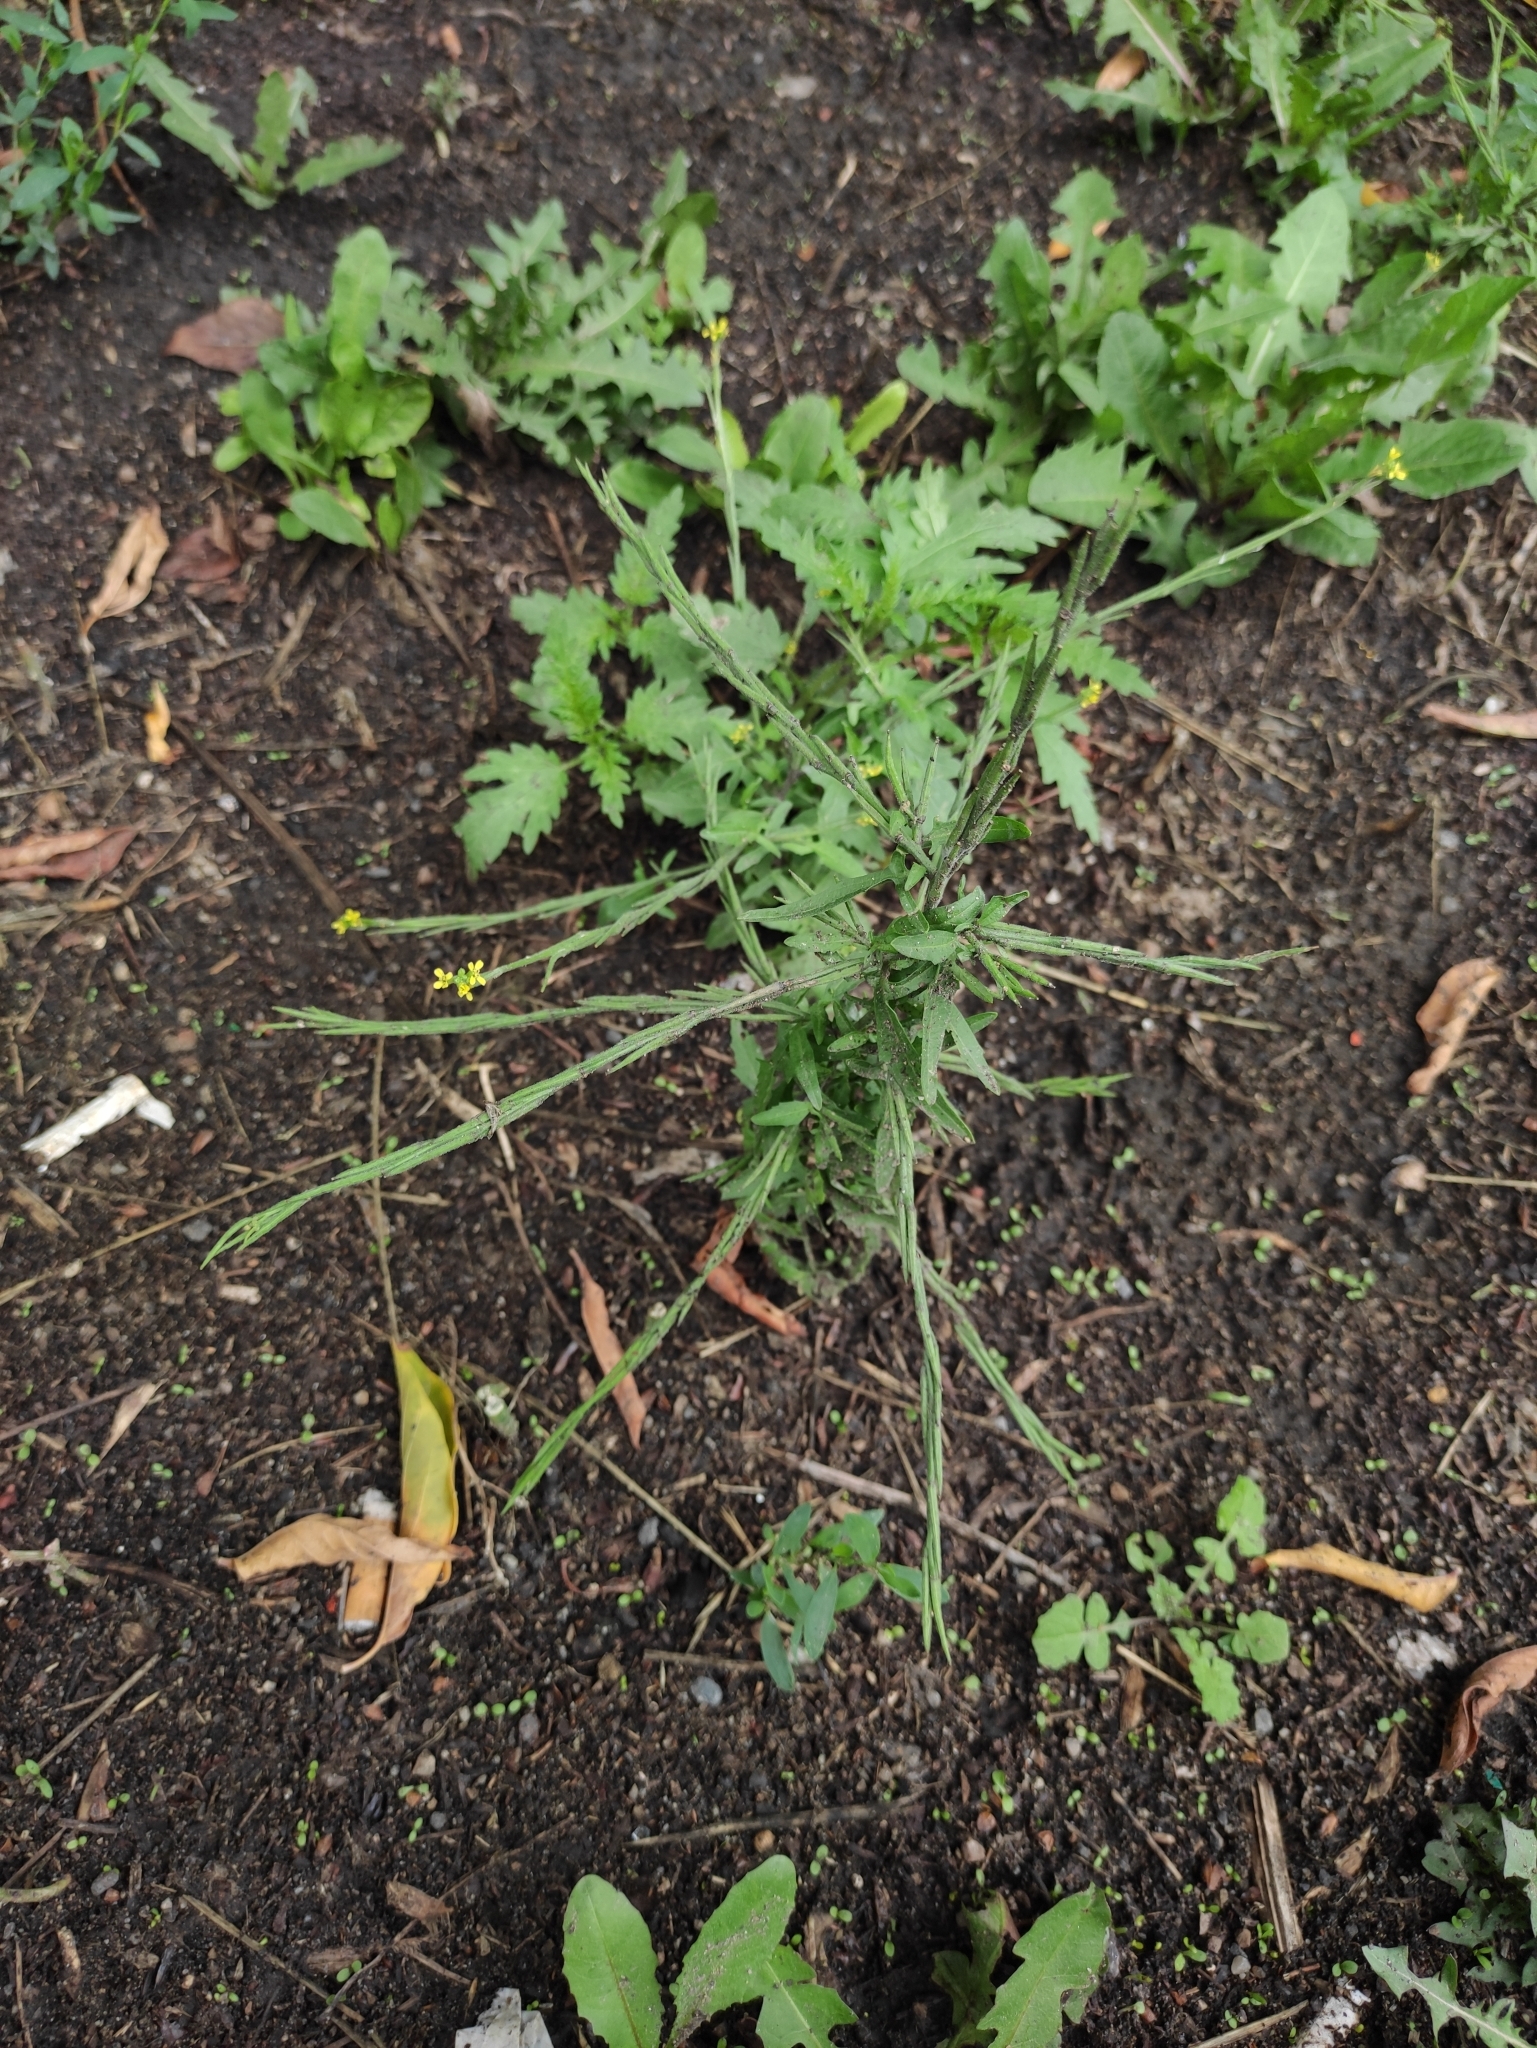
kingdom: Plantae
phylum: Tracheophyta
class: Magnoliopsida
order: Brassicales
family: Brassicaceae
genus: Sisymbrium
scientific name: Sisymbrium officinale
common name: Hedge mustard
